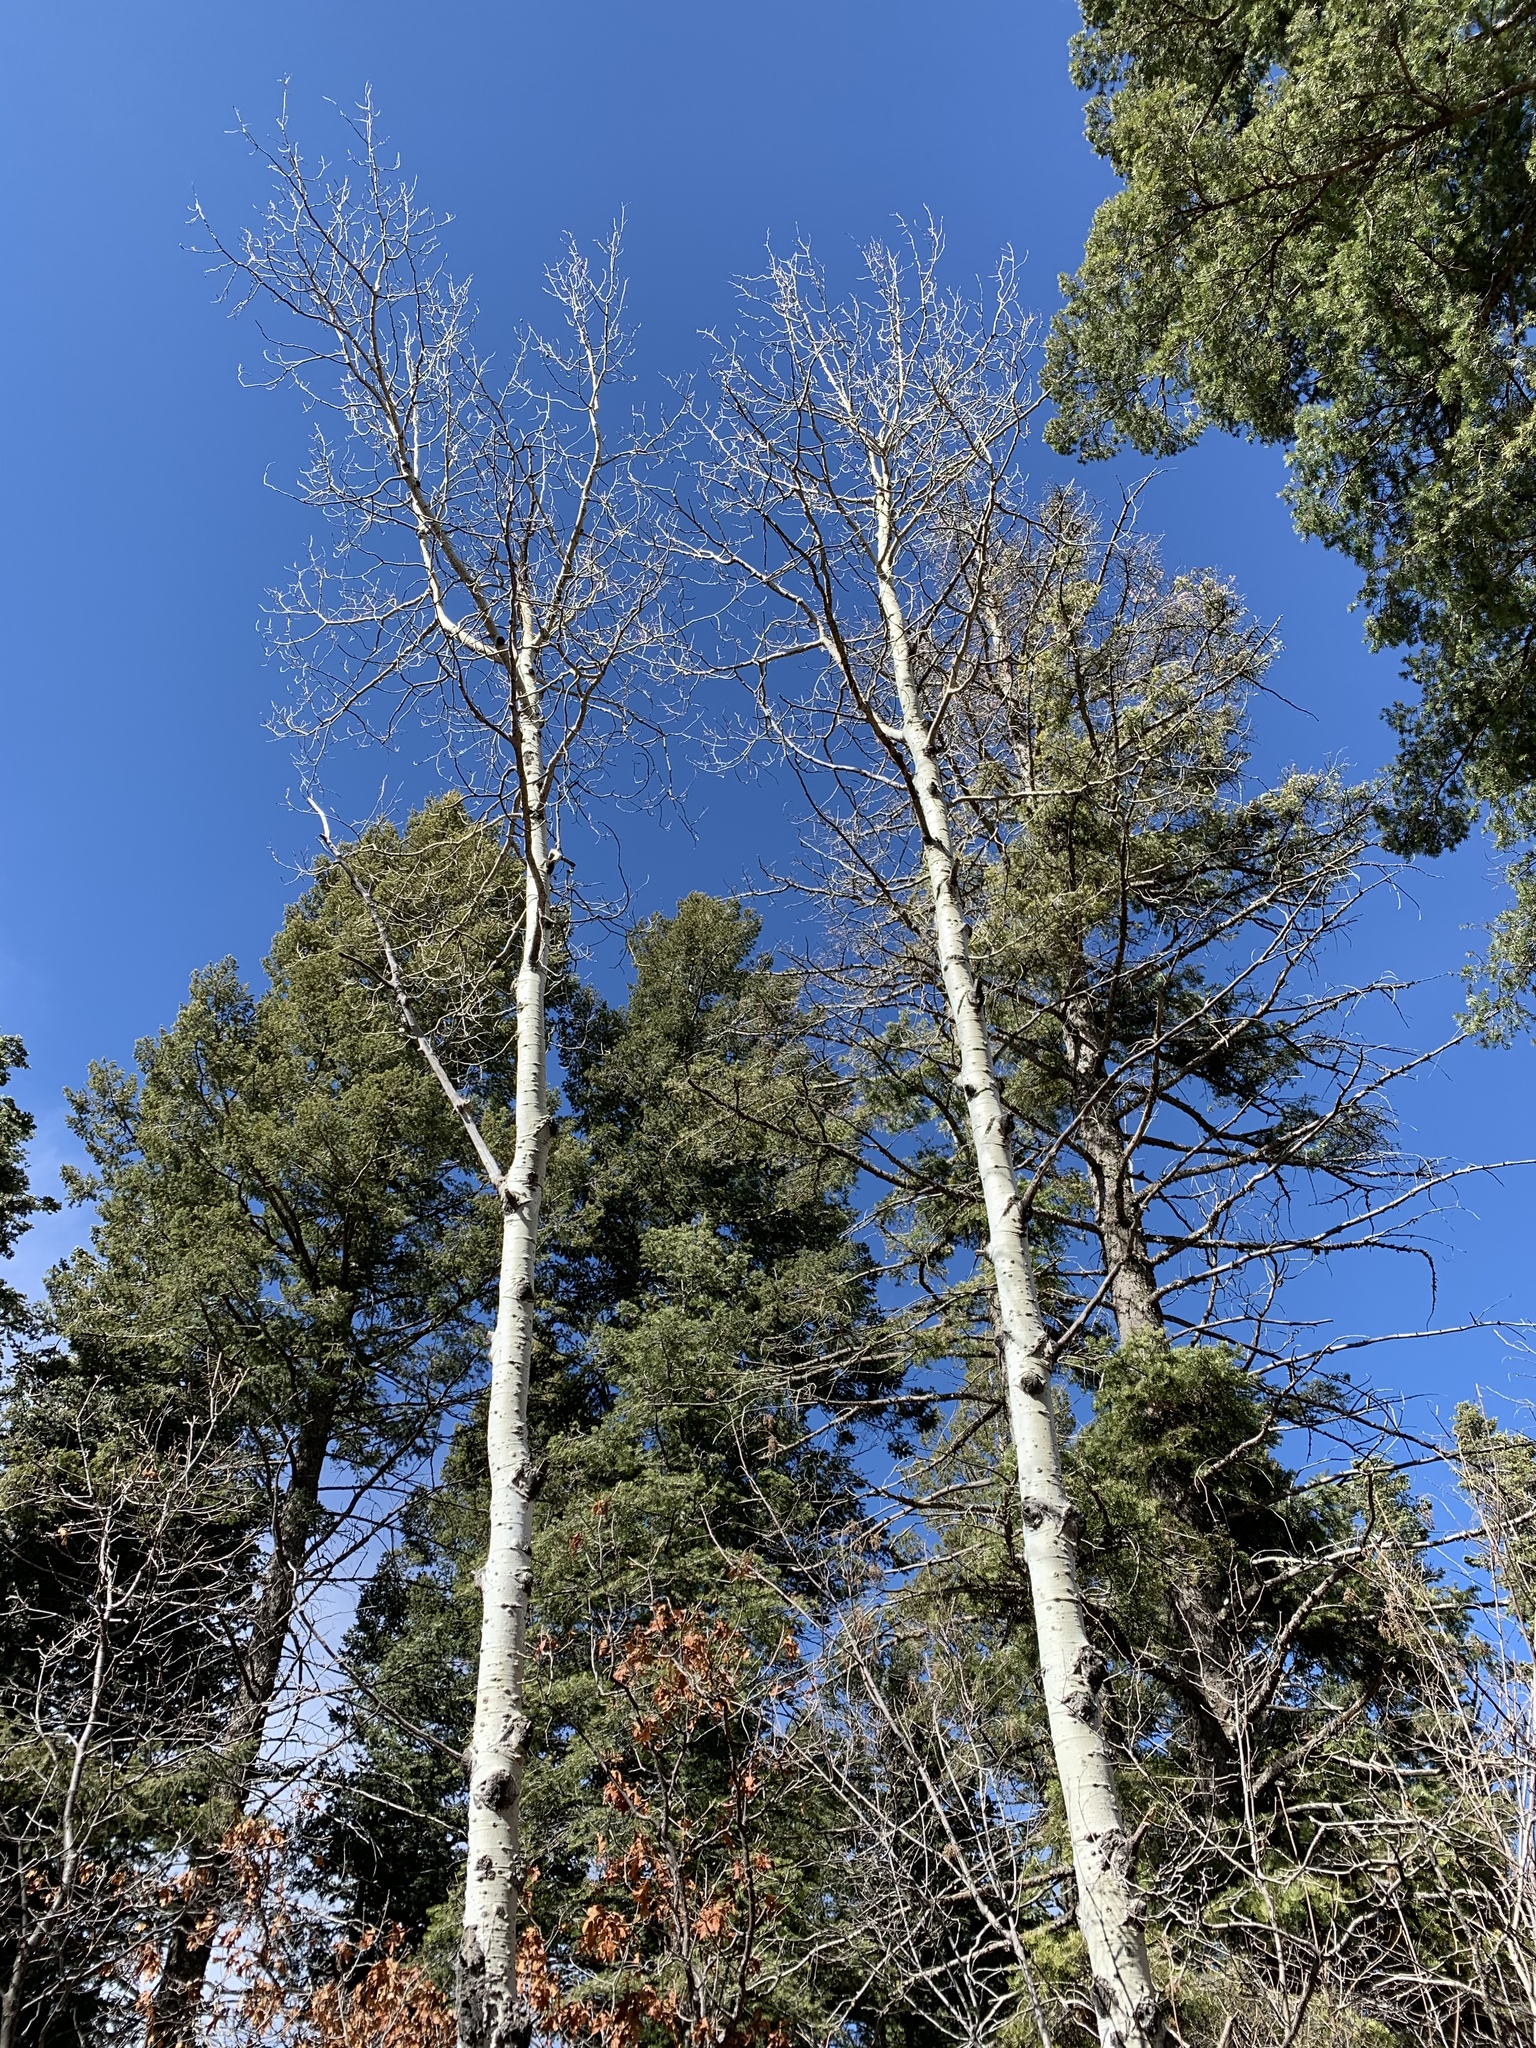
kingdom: Plantae
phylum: Tracheophyta
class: Magnoliopsida
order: Malpighiales
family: Salicaceae
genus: Populus
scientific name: Populus tremuloides
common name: Quaking aspen
